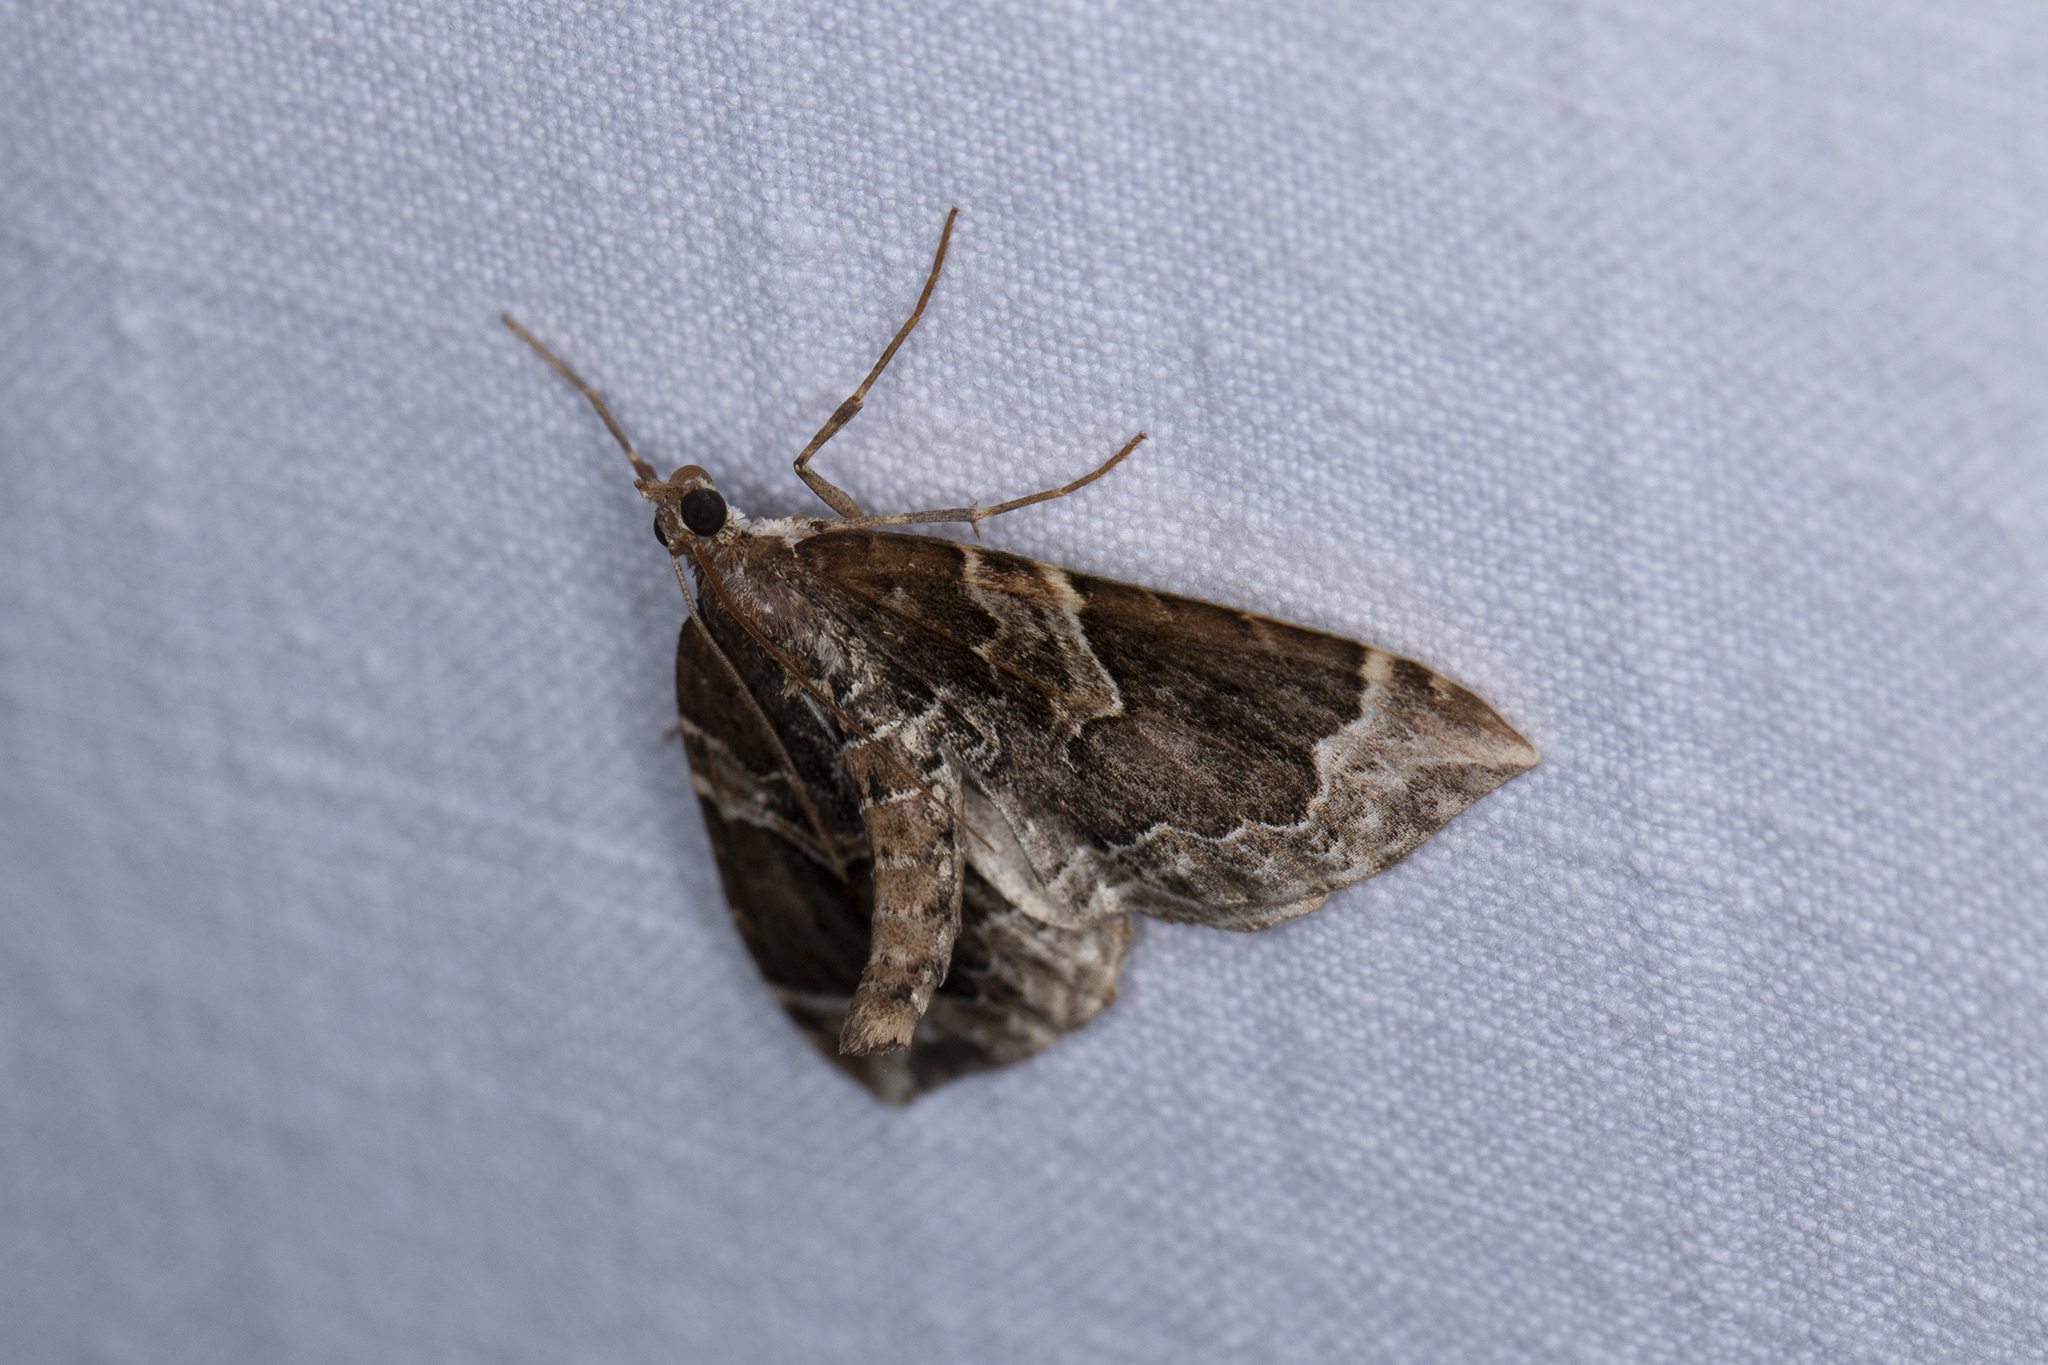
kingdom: Animalia
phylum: Arthropoda
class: Insecta
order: Lepidoptera
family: Geometridae
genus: Eulithis
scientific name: Eulithis prunata
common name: Phoenix
